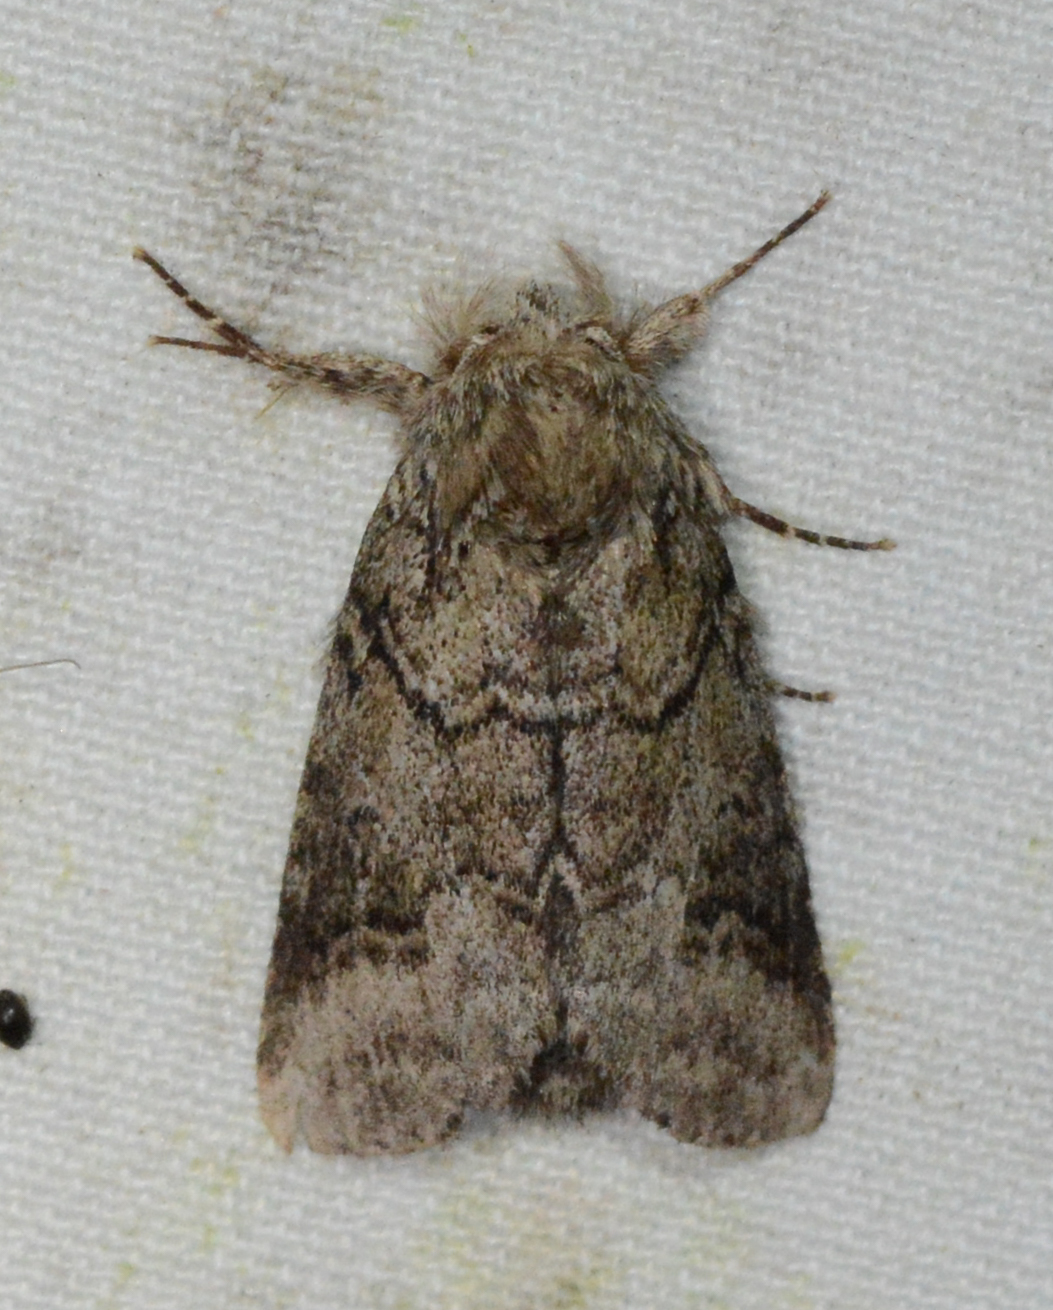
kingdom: Animalia
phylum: Arthropoda
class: Insecta
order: Lepidoptera
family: Notodontidae
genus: Lochmaeus
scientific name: Lochmaeus bilineata
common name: Double-lined prominent
